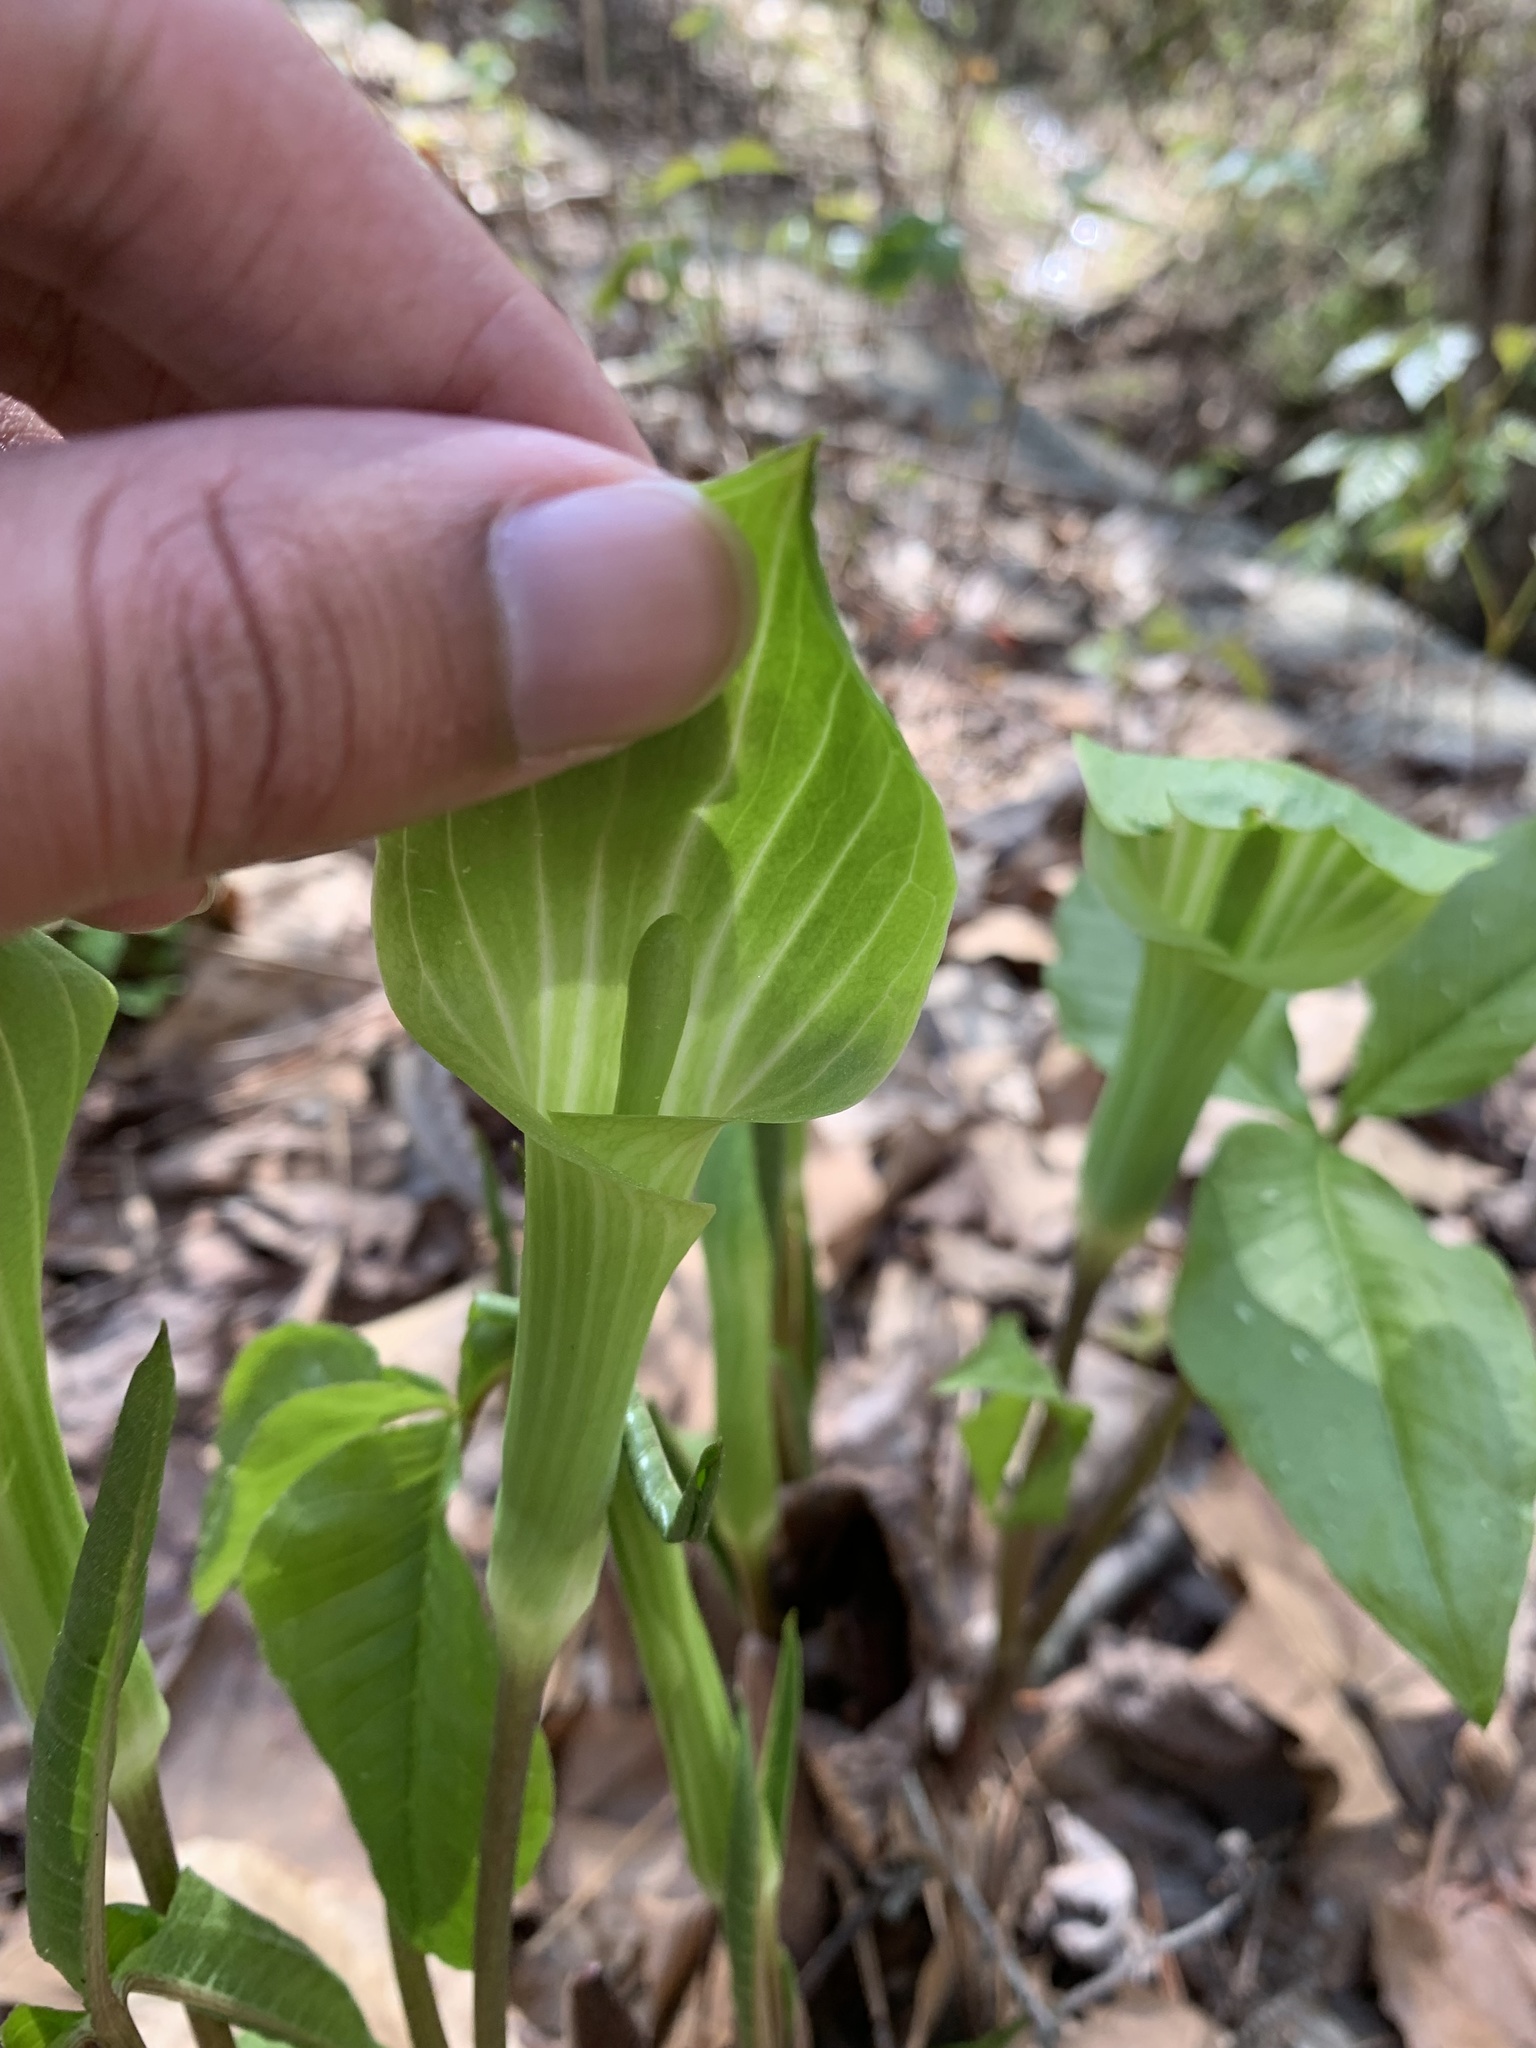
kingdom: Plantae
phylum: Tracheophyta
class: Liliopsida
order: Alismatales
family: Araceae
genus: Arisaema
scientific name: Arisaema triphyllum
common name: Jack-in-the-pulpit
